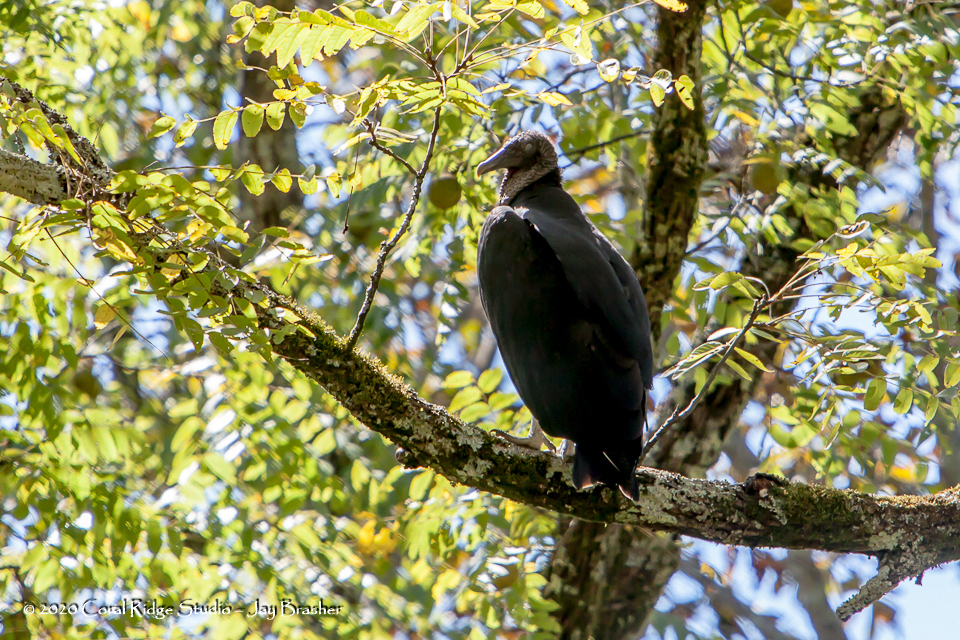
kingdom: Animalia
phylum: Chordata
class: Aves
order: Accipitriformes
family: Cathartidae
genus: Coragyps
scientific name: Coragyps atratus
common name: Black vulture
